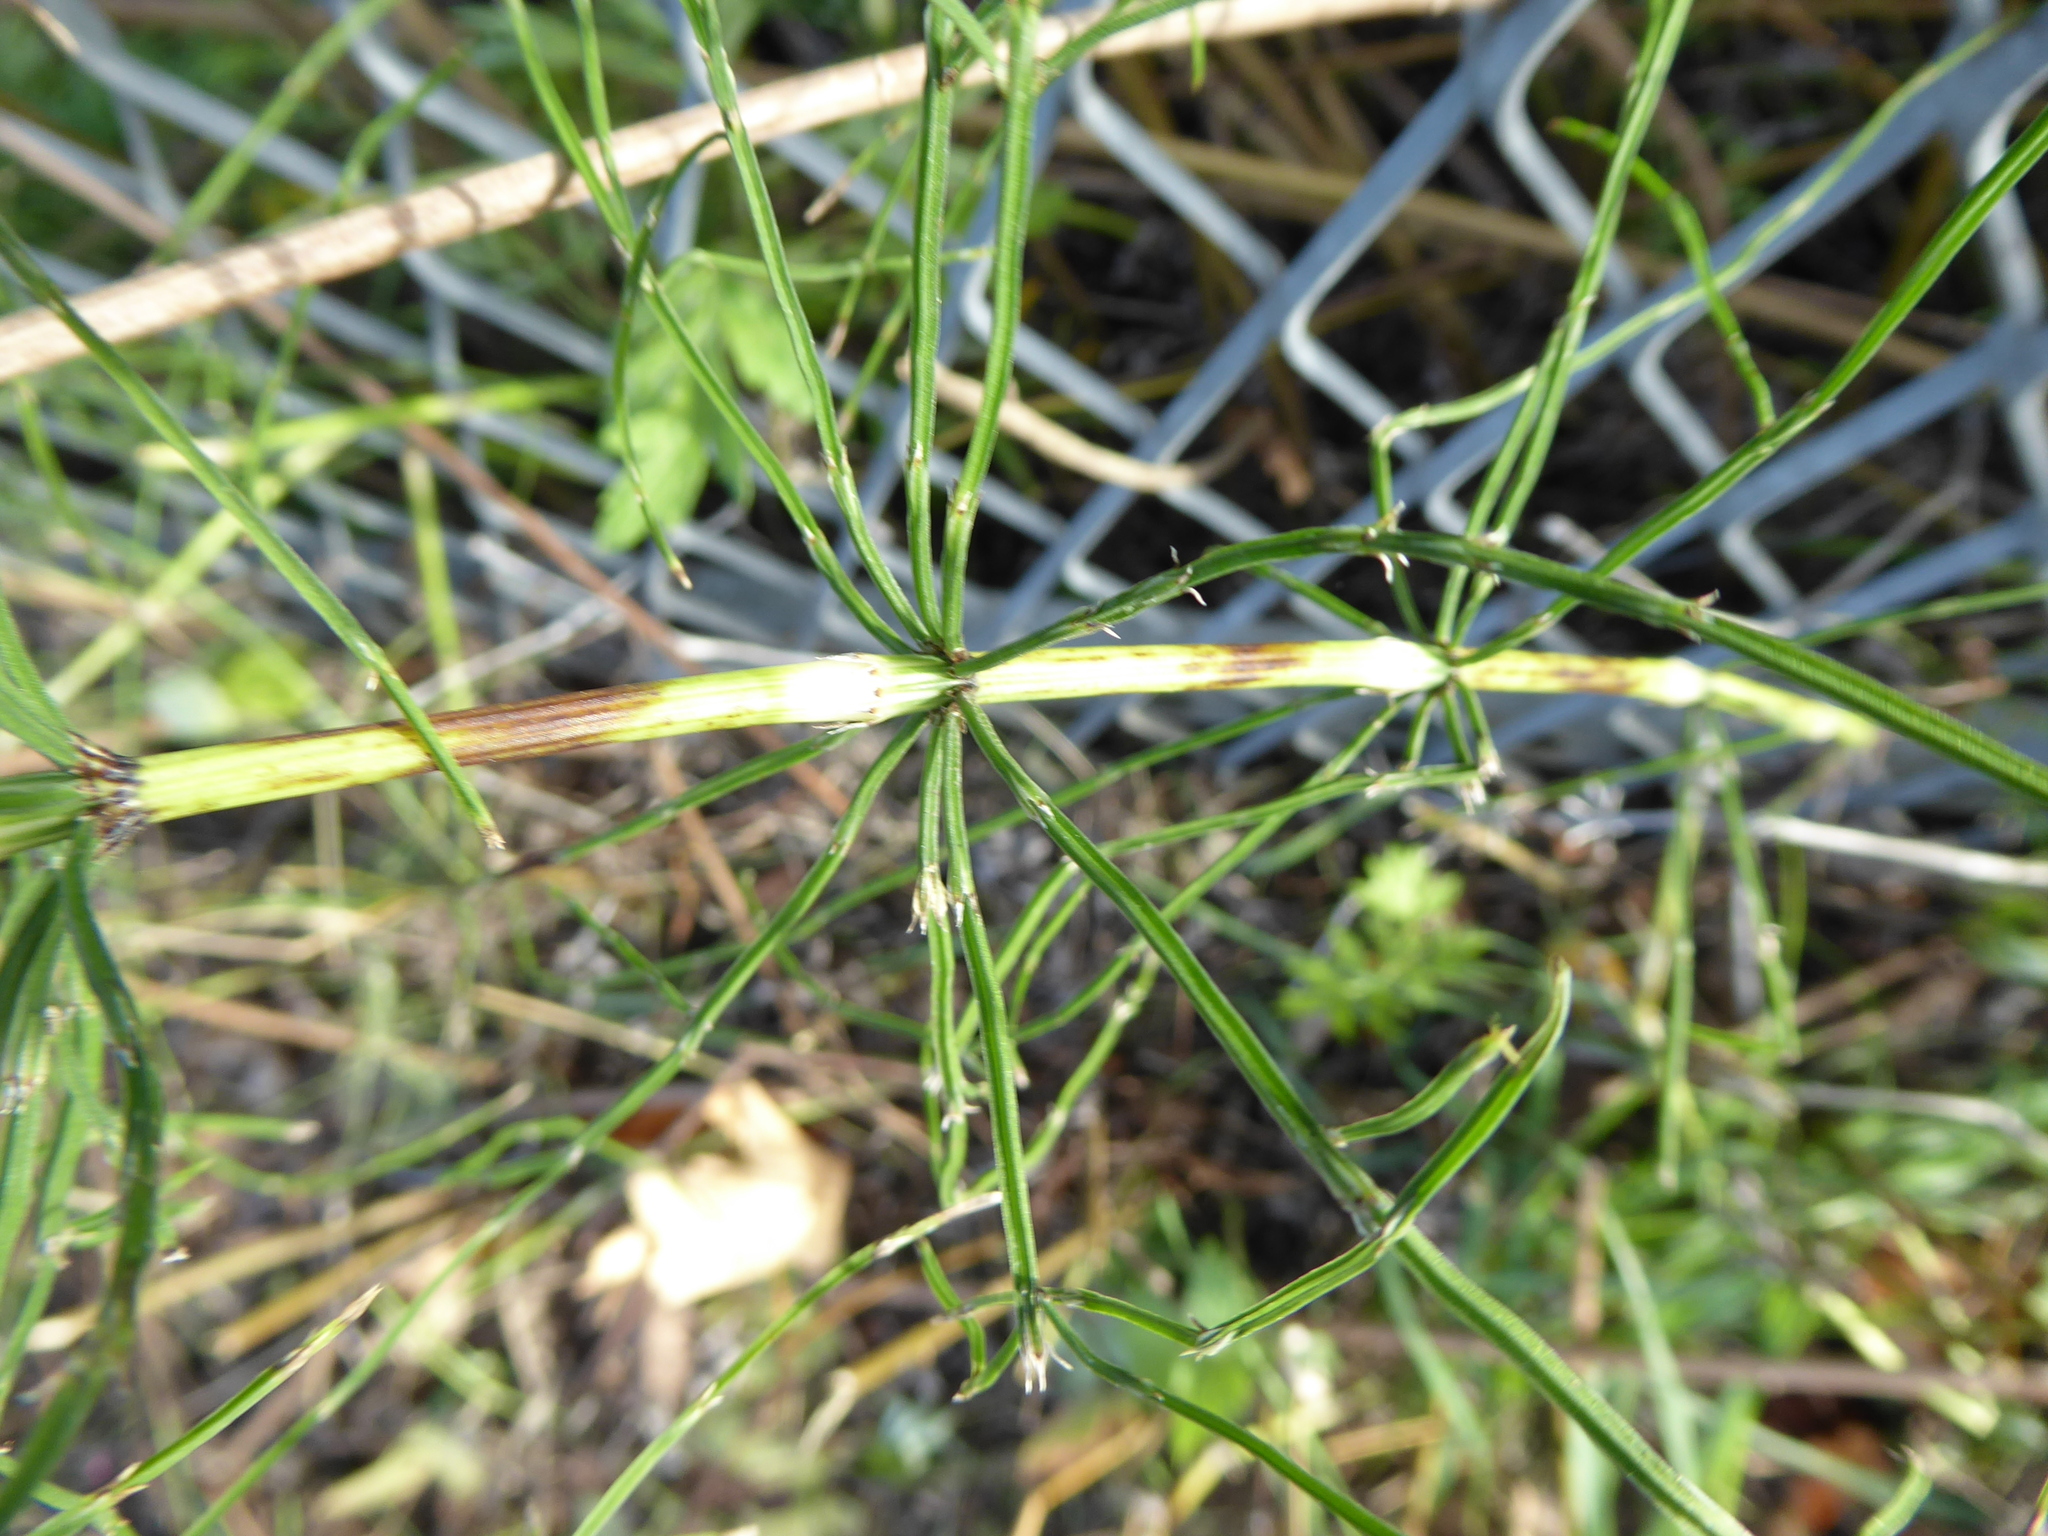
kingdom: Plantae
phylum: Tracheophyta
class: Polypodiopsida
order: Equisetales
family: Equisetaceae
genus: Equisetum
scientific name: Equisetum arvense
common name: Field horsetail
